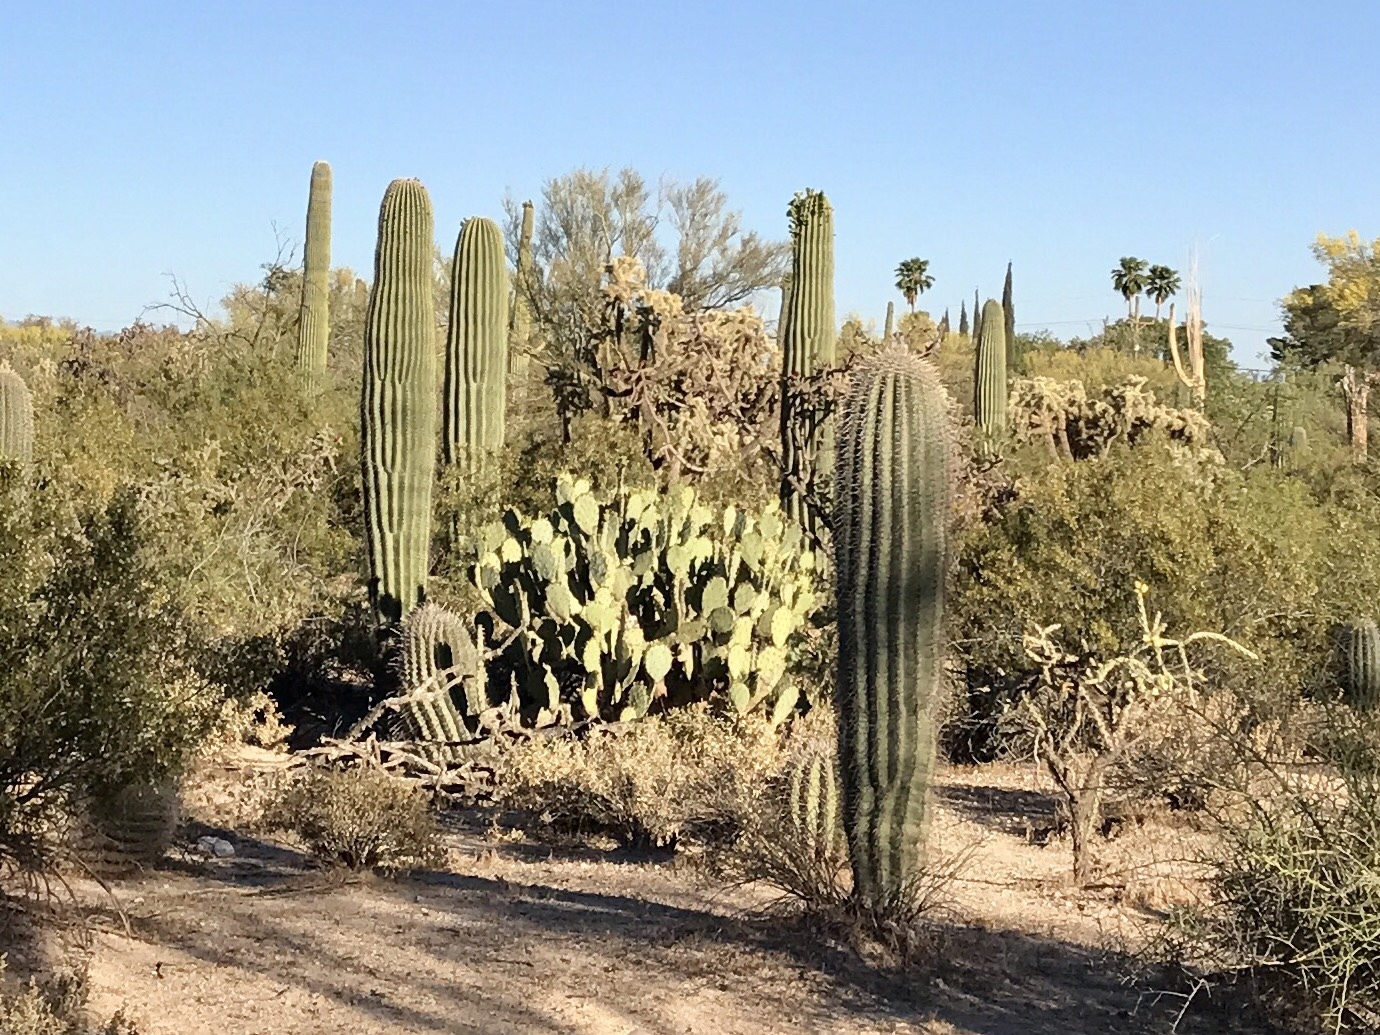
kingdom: Plantae
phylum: Tracheophyta
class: Magnoliopsida
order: Caryophyllales
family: Cactaceae
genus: Carnegiea
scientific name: Carnegiea gigantea
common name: Saguaro
